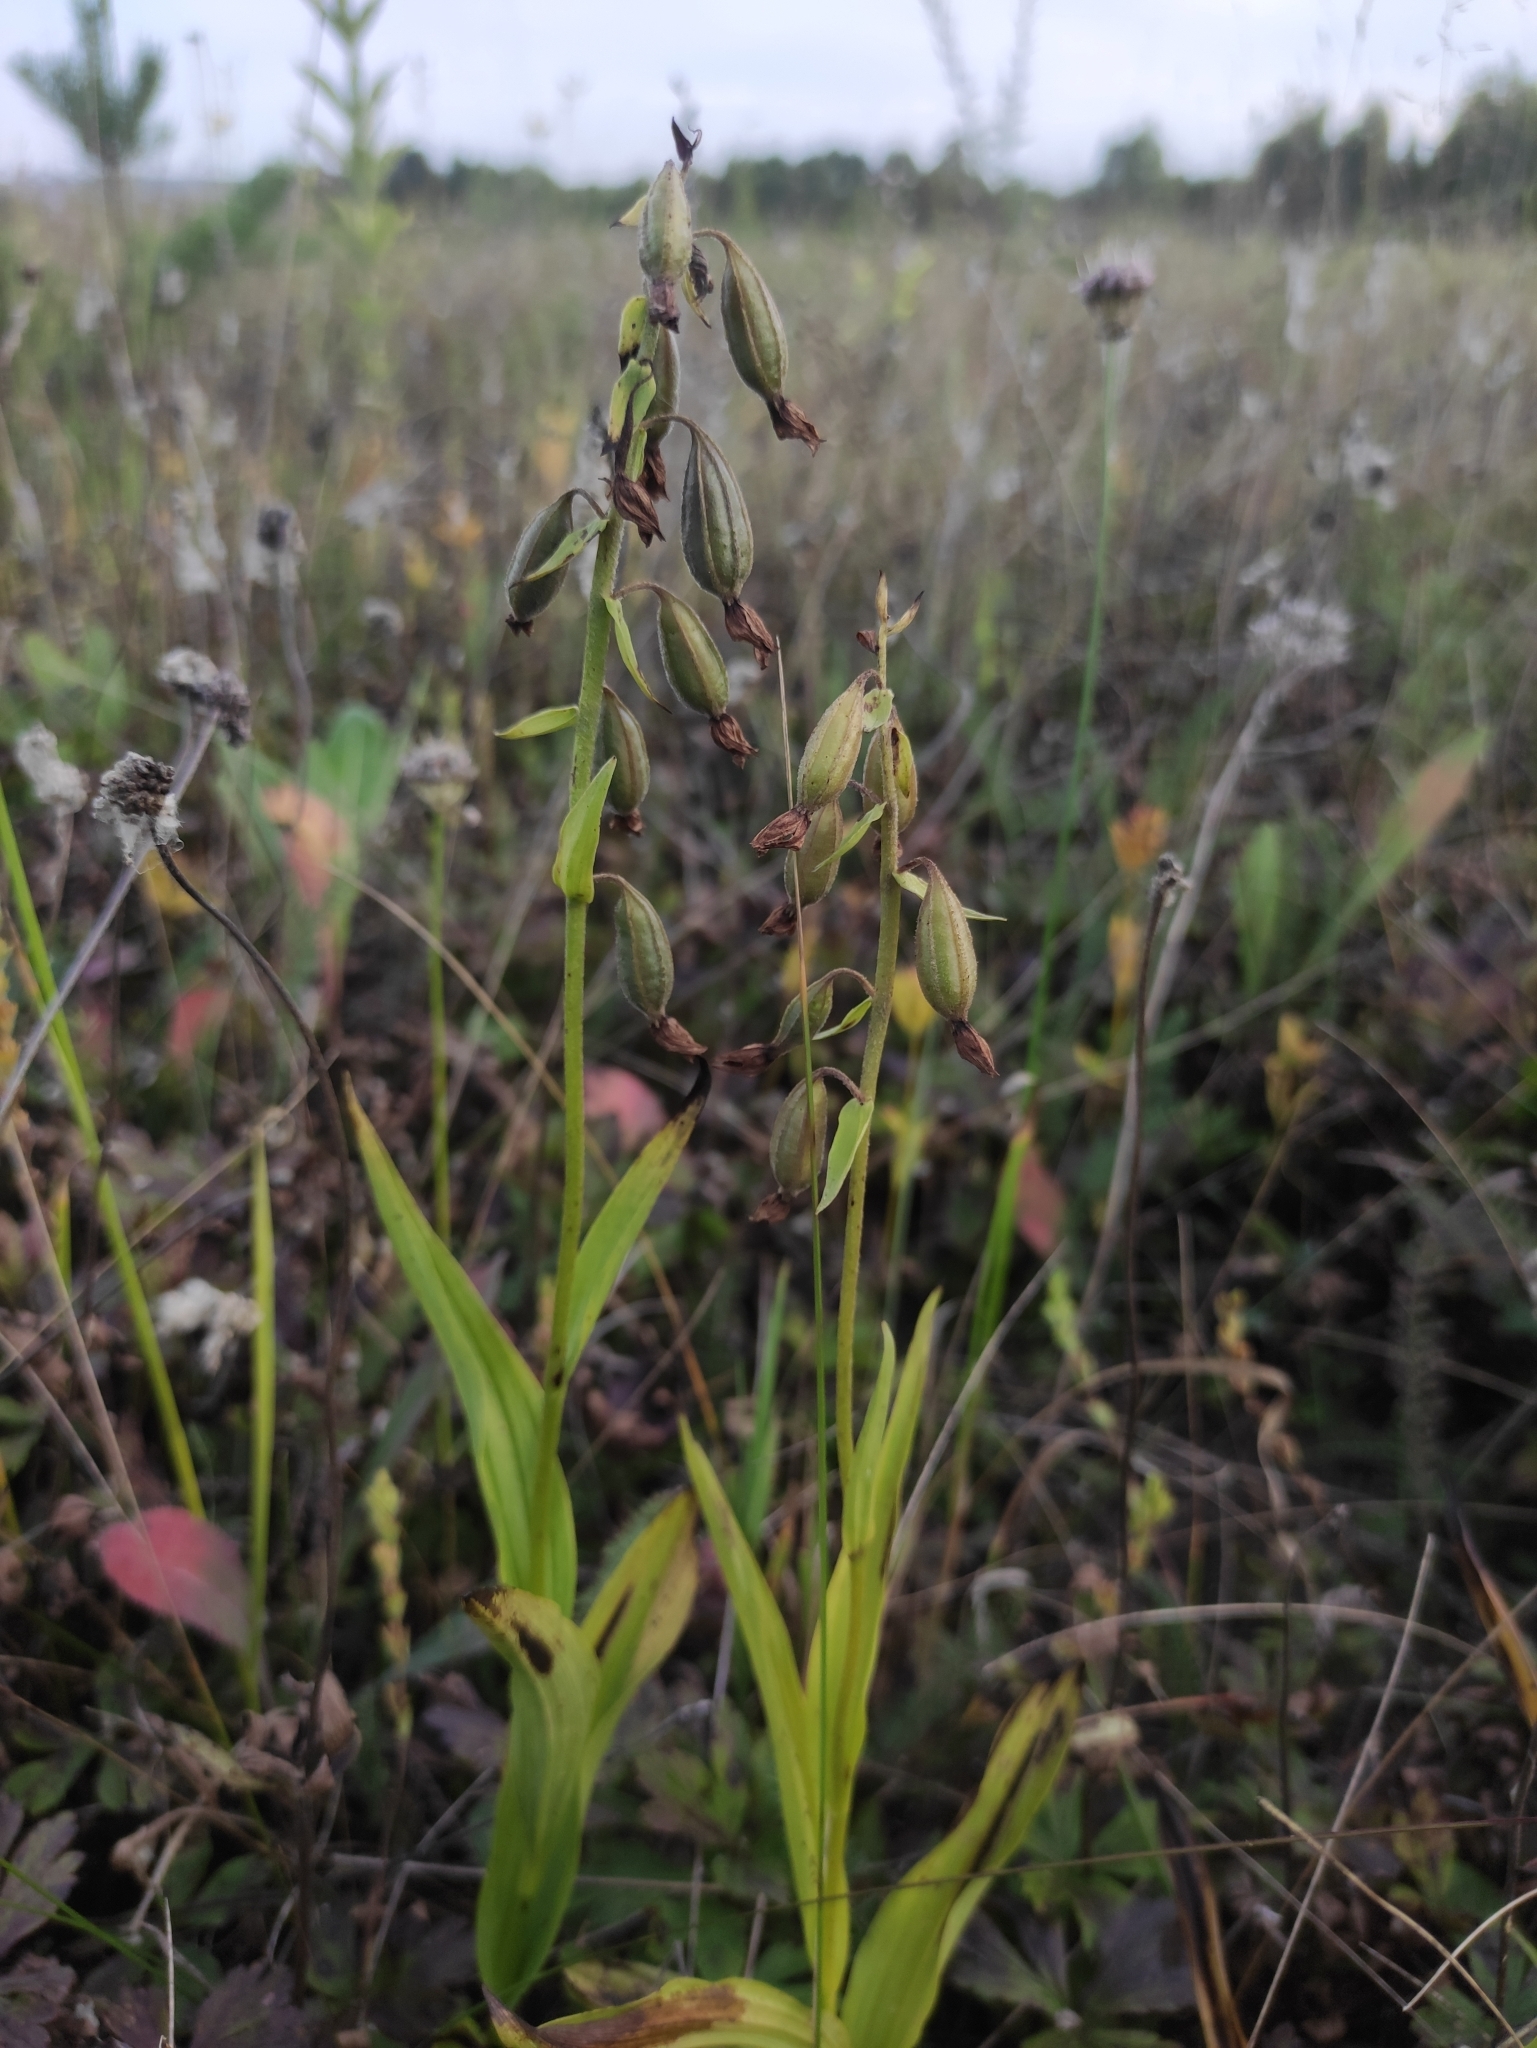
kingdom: Plantae
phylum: Tracheophyta
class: Liliopsida
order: Asparagales
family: Orchidaceae
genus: Epipactis
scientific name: Epipactis palustris
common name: Marsh helleborine
